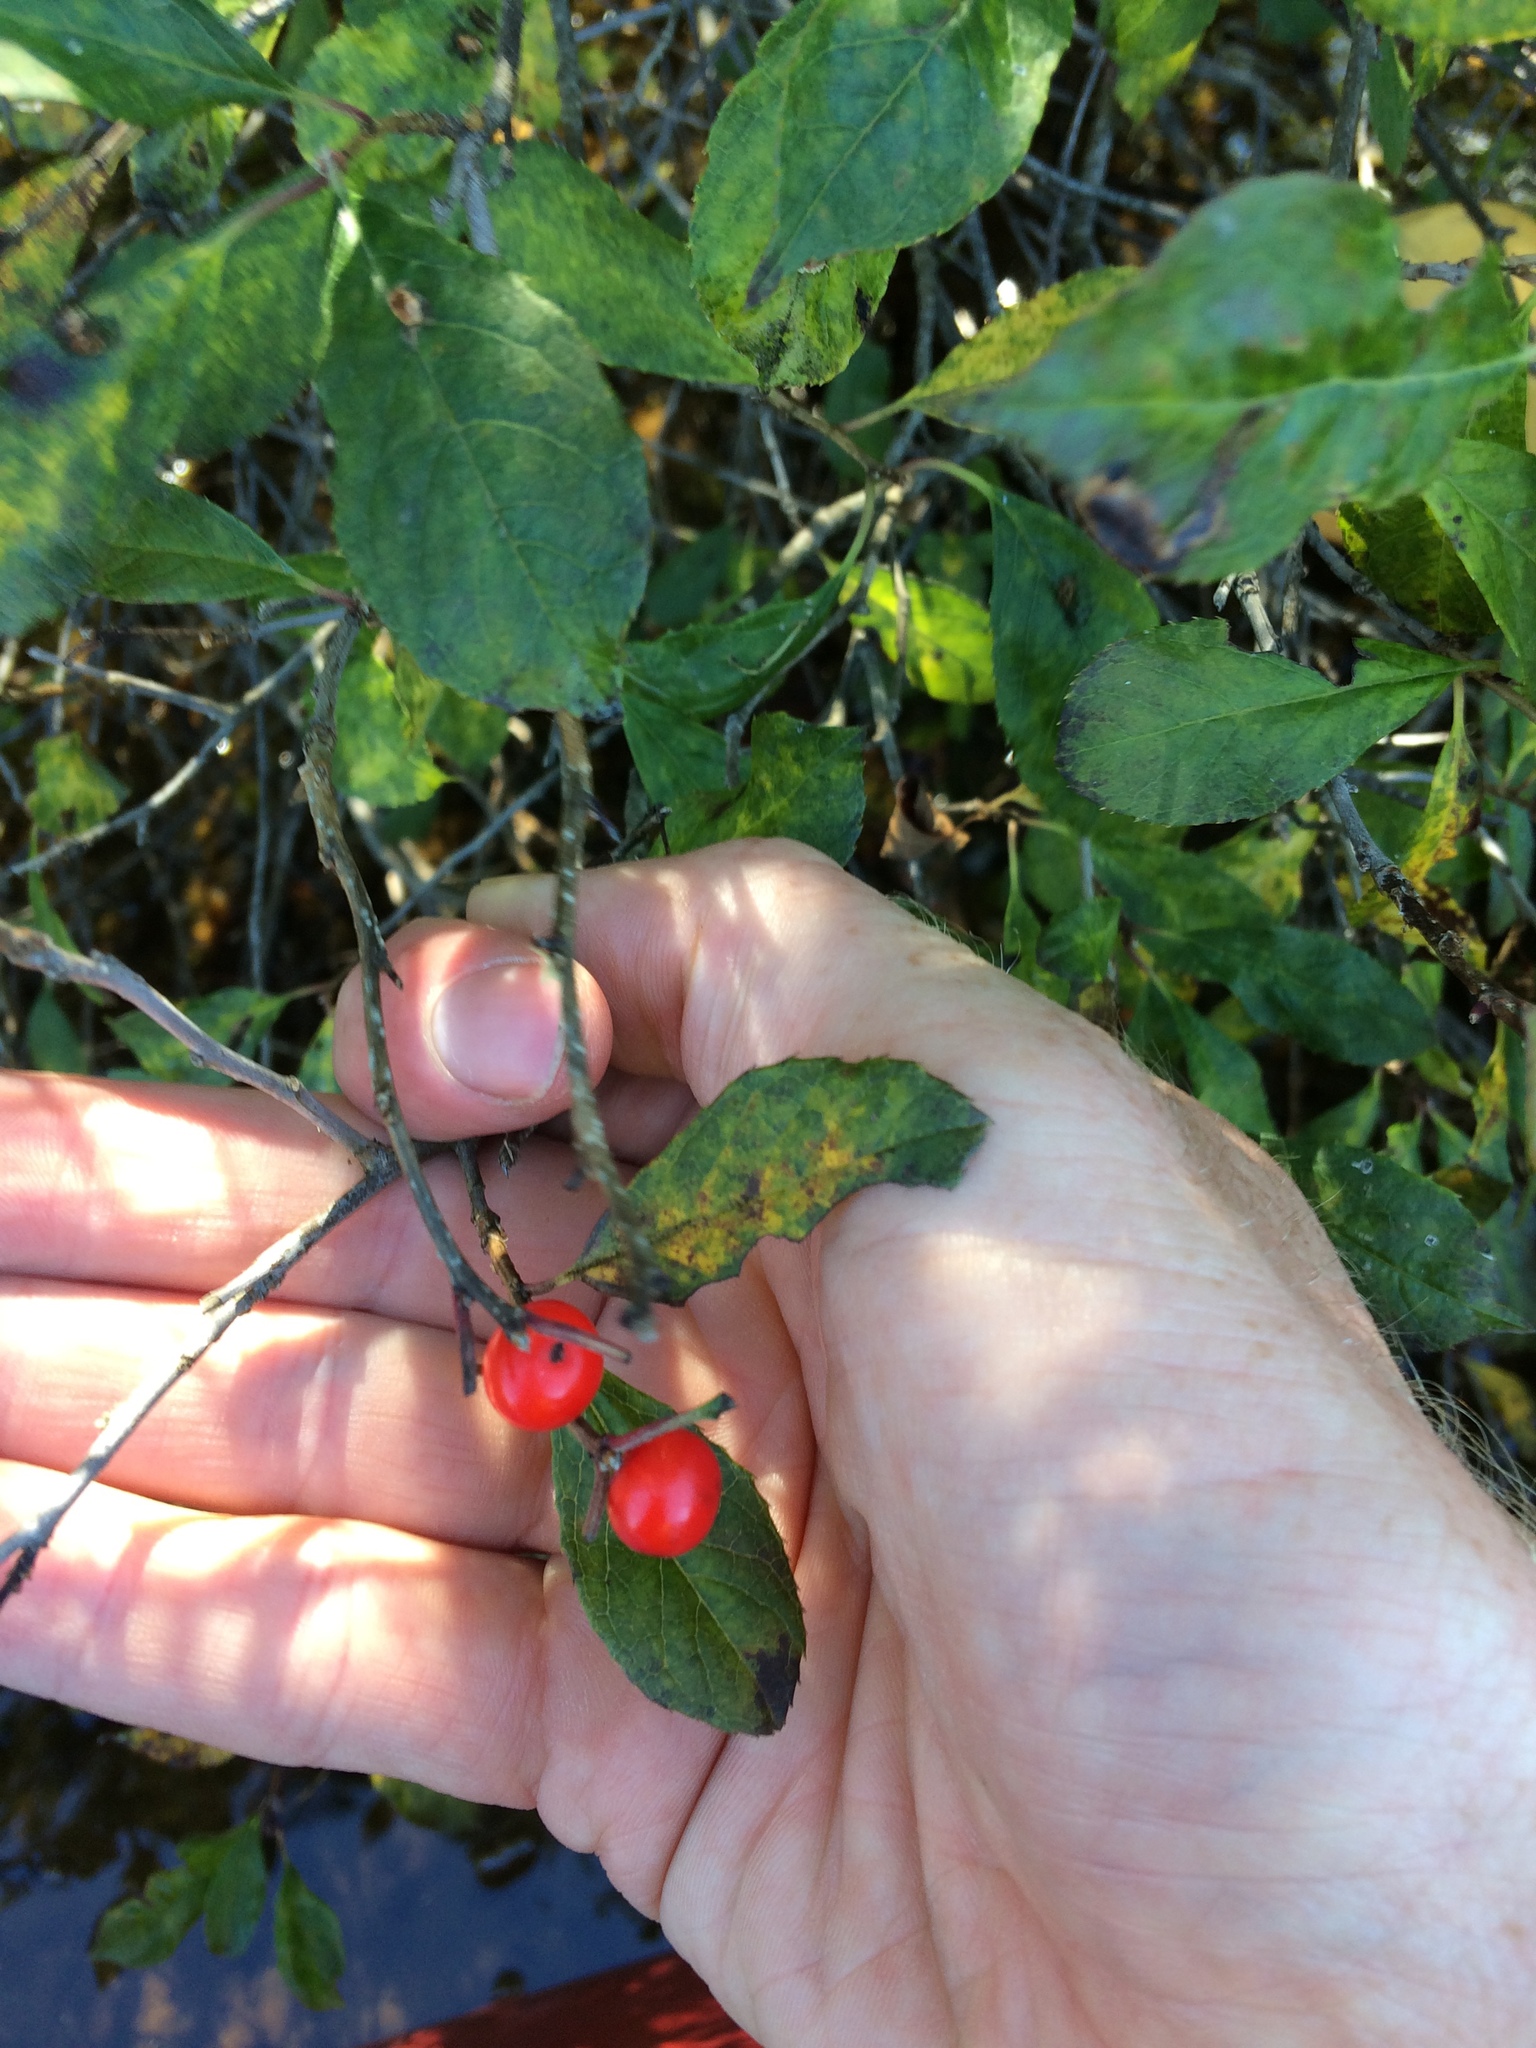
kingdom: Plantae
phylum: Tracheophyta
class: Magnoliopsida
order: Aquifoliales
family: Aquifoliaceae
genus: Ilex
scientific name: Ilex verticillata
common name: Virginia winterberry
